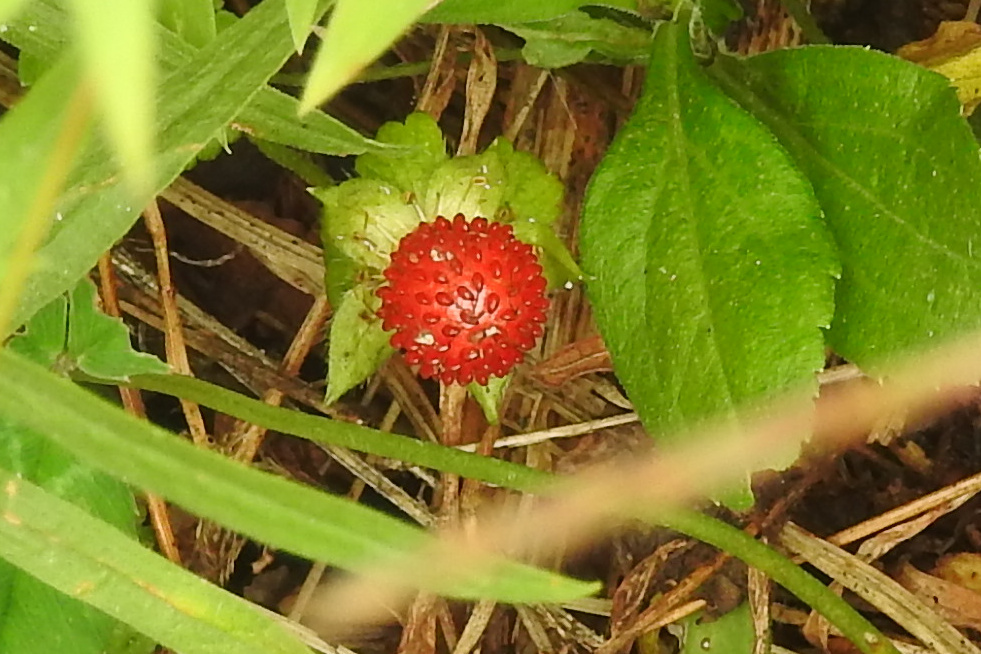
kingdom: Plantae
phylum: Tracheophyta
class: Magnoliopsida
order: Rosales
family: Rosaceae
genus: Potentilla
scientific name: Potentilla indica
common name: Yellow-flowered strawberry
